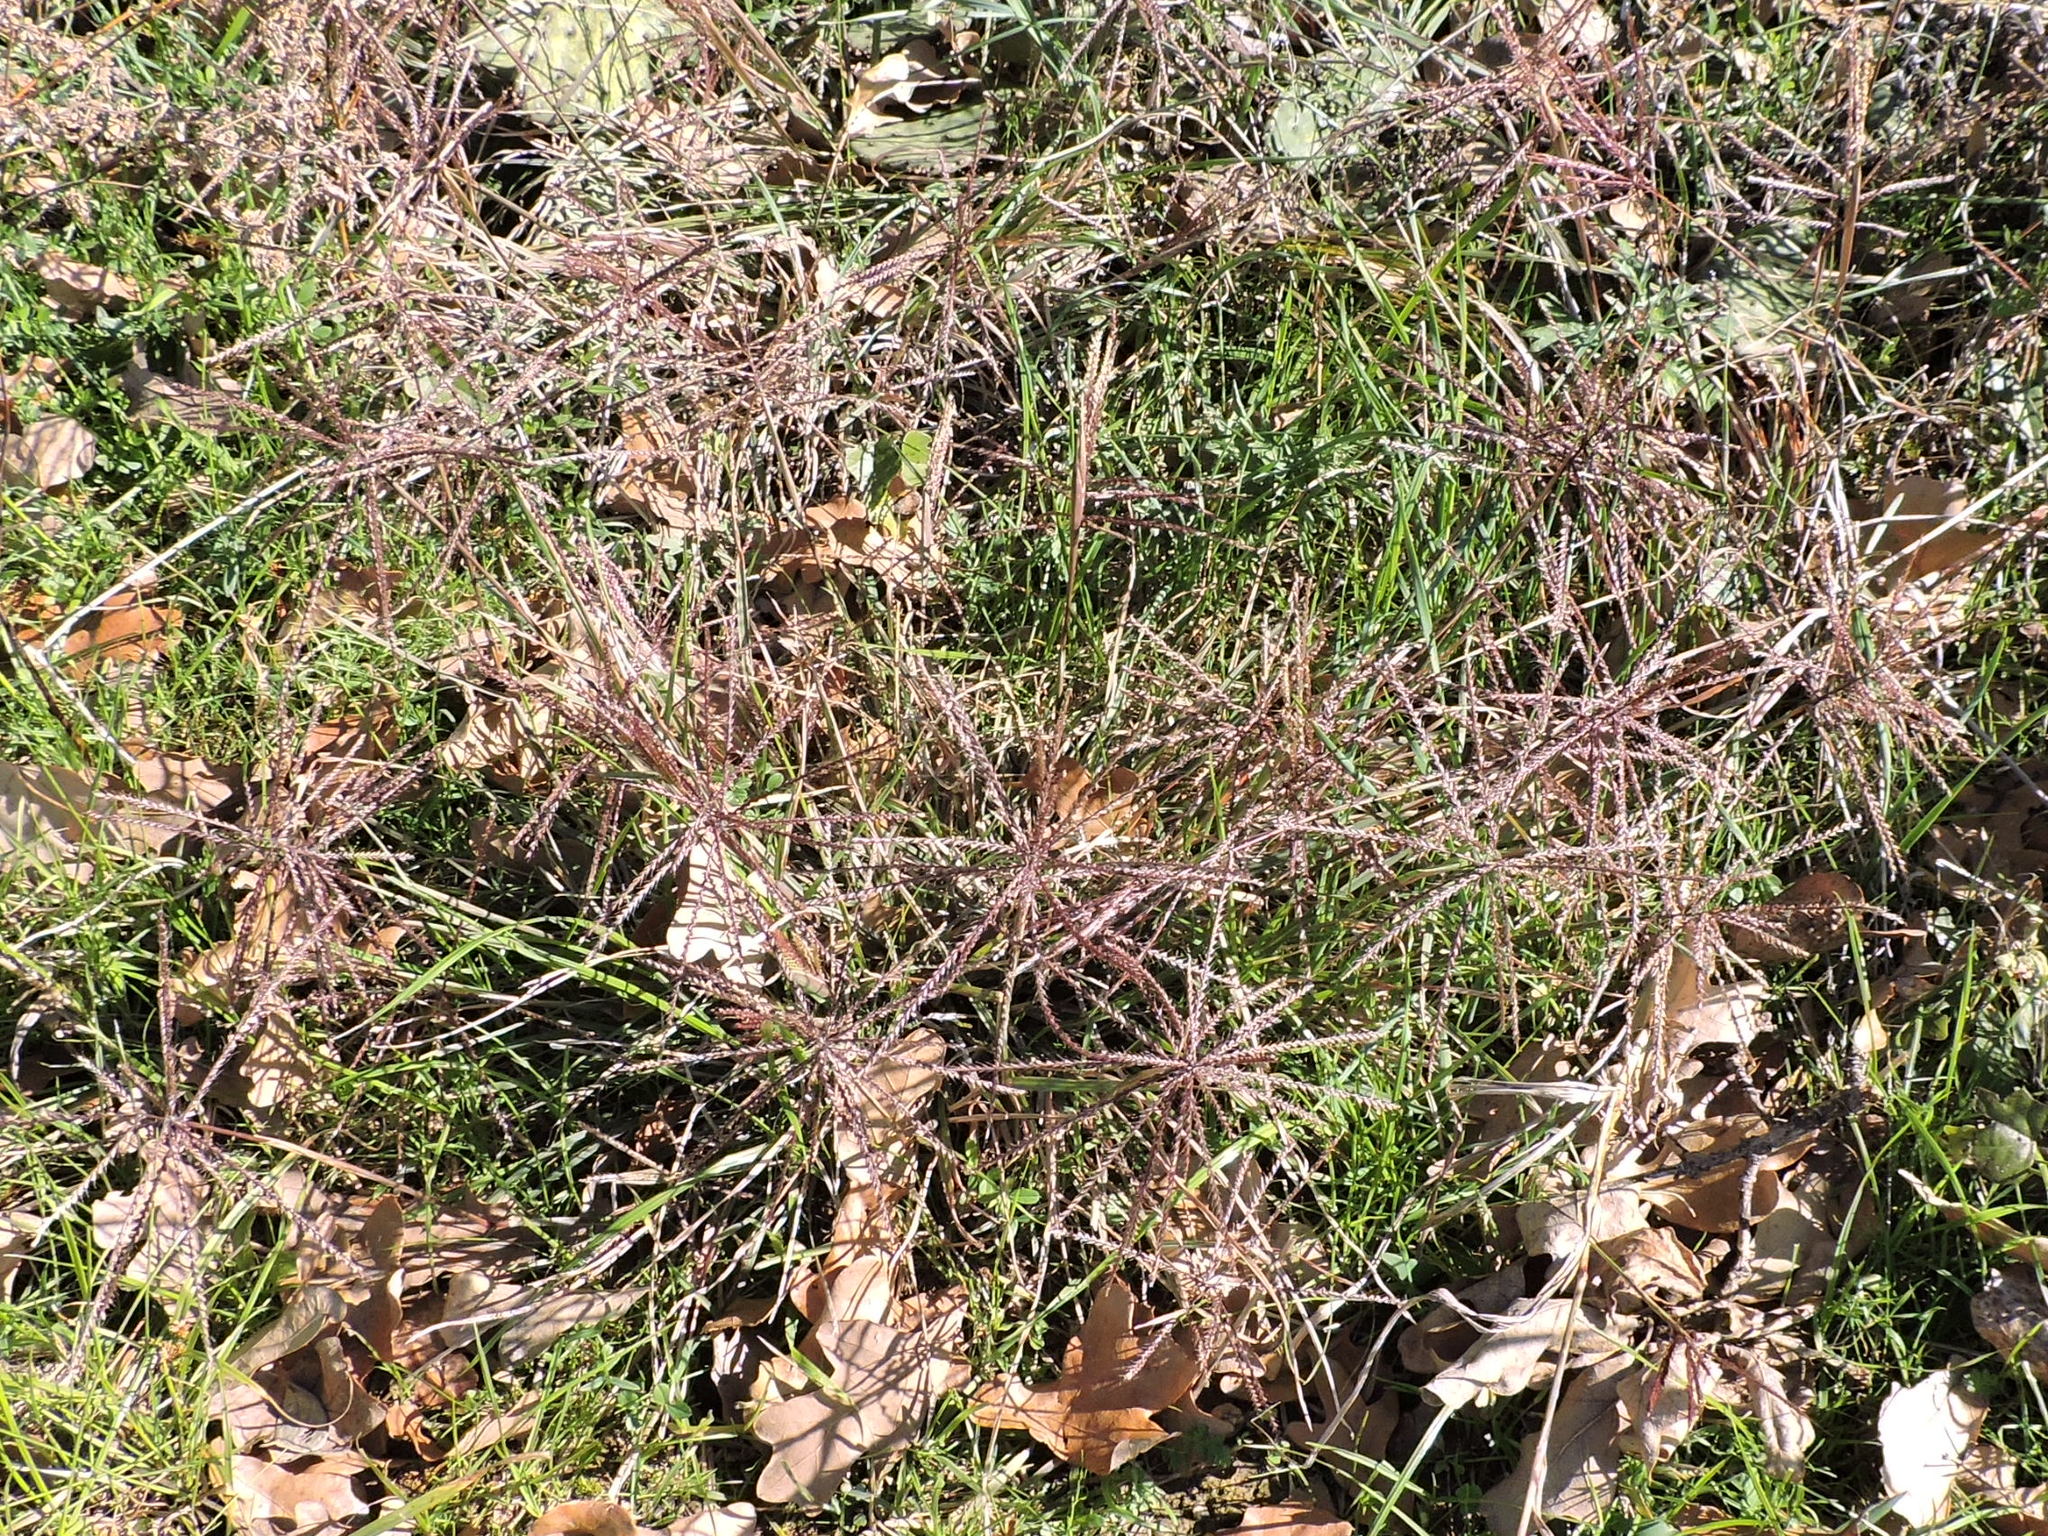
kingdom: Plantae
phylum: Tracheophyta
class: Liliopsida
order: Poales
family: Poaceae
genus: Chloris
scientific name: Chloris verticillata
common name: Tumble windmill grass
